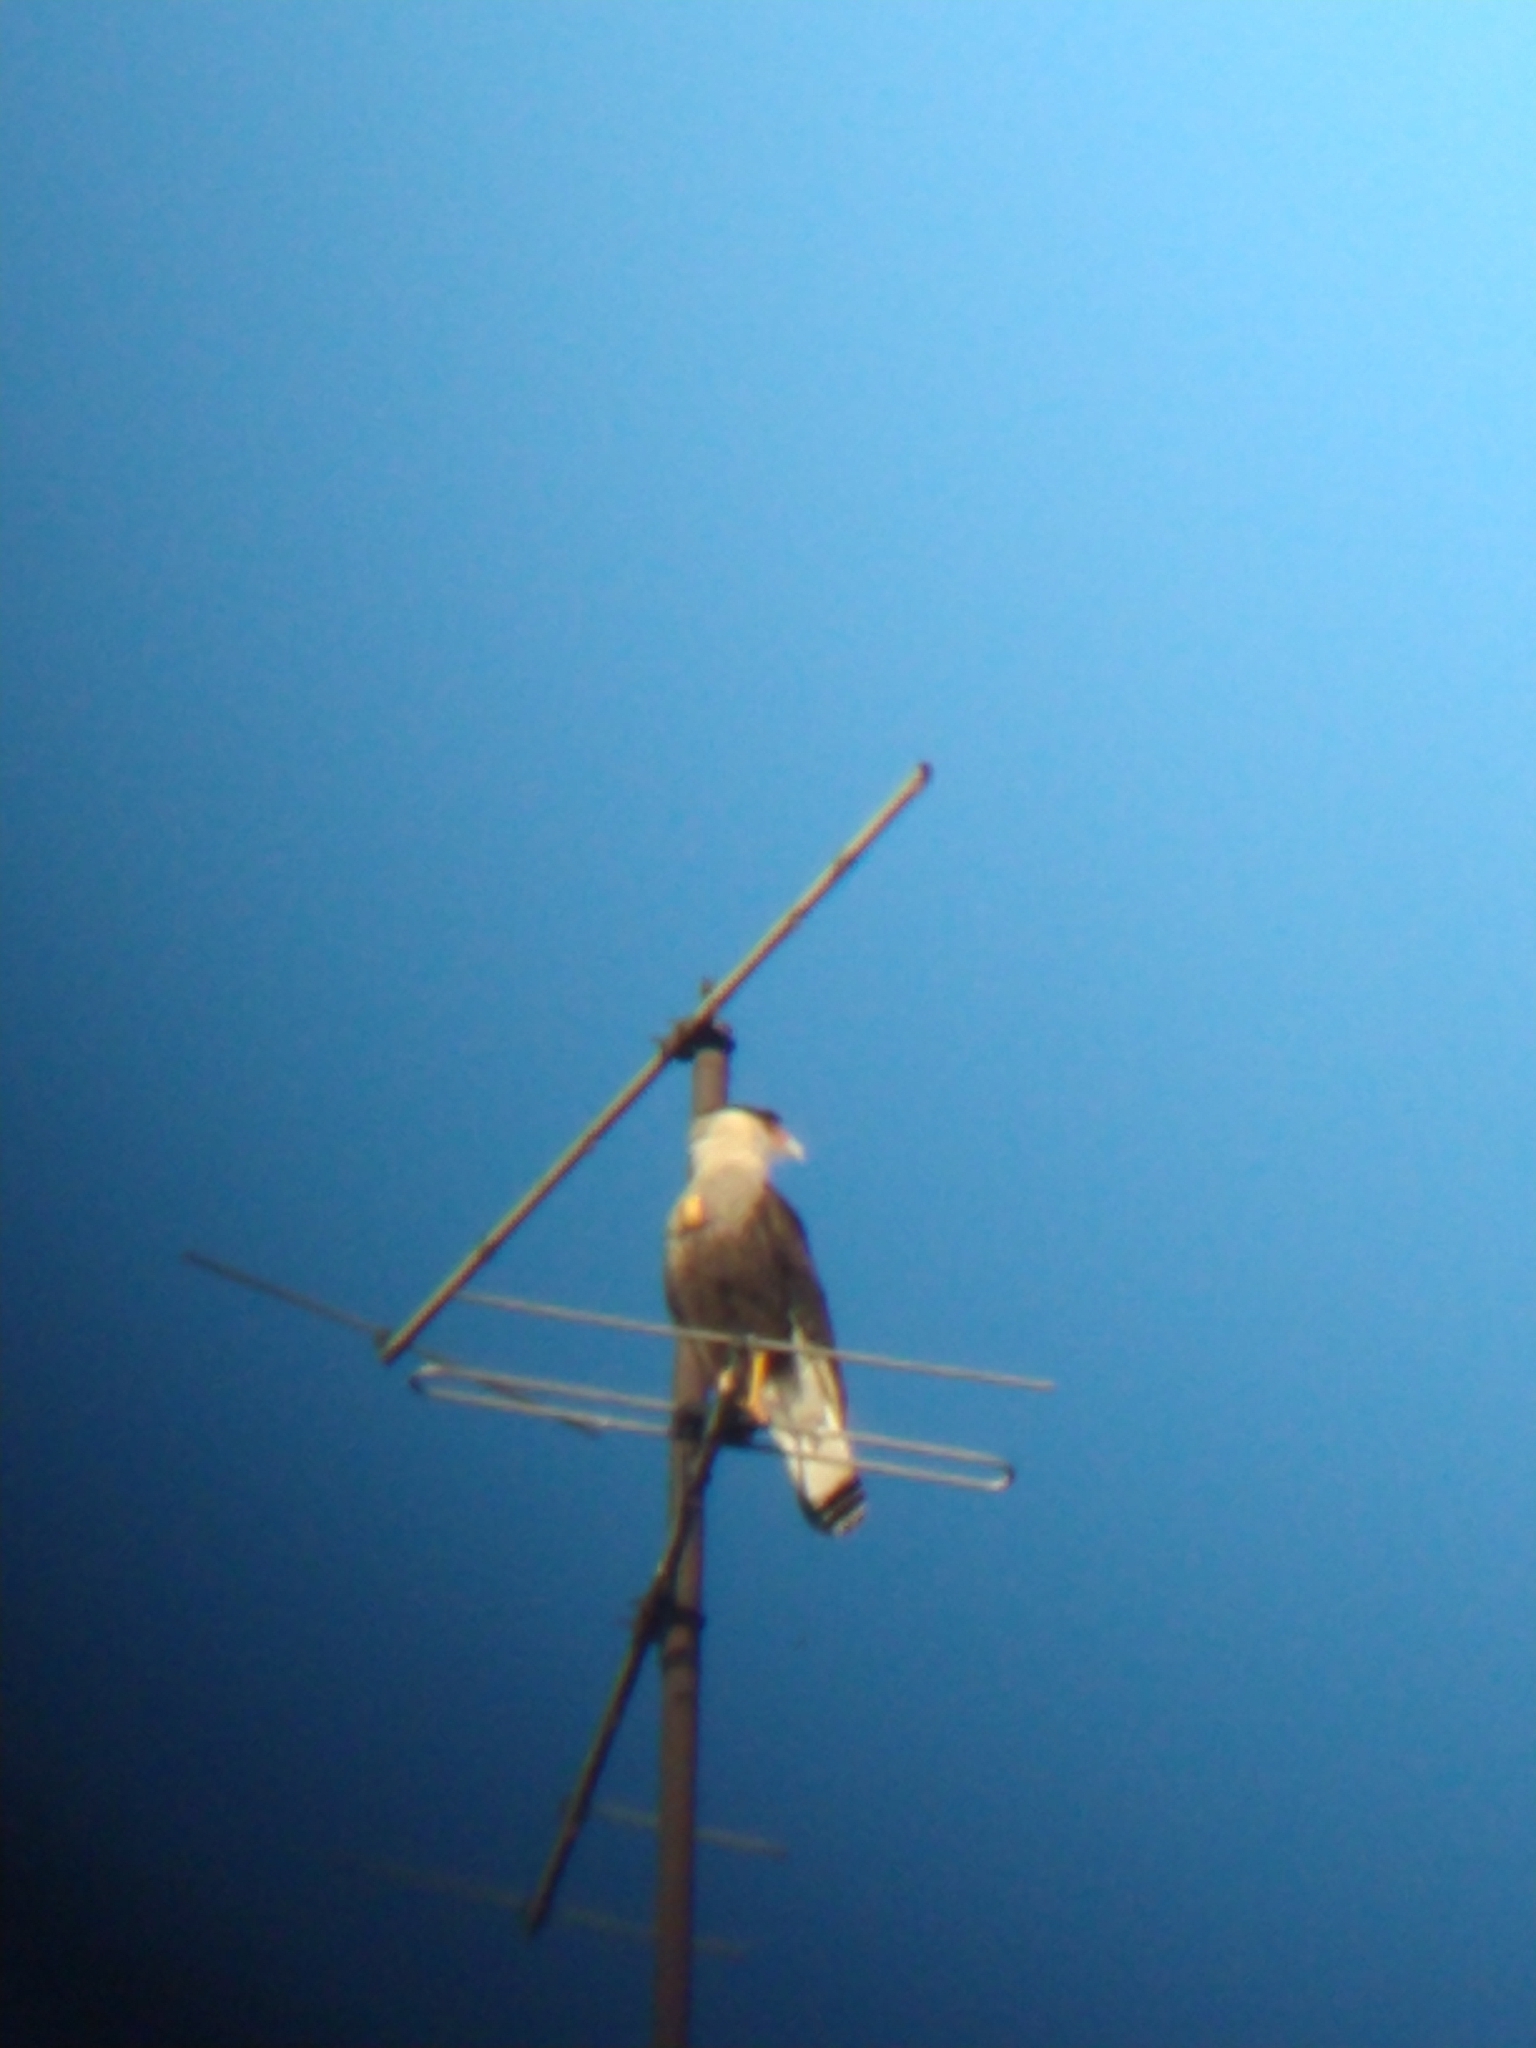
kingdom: Animalia
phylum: Chordata
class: Aves
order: Falconiformes
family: Falconidae
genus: Caracara
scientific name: Caracara plancus
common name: Southern caracara
